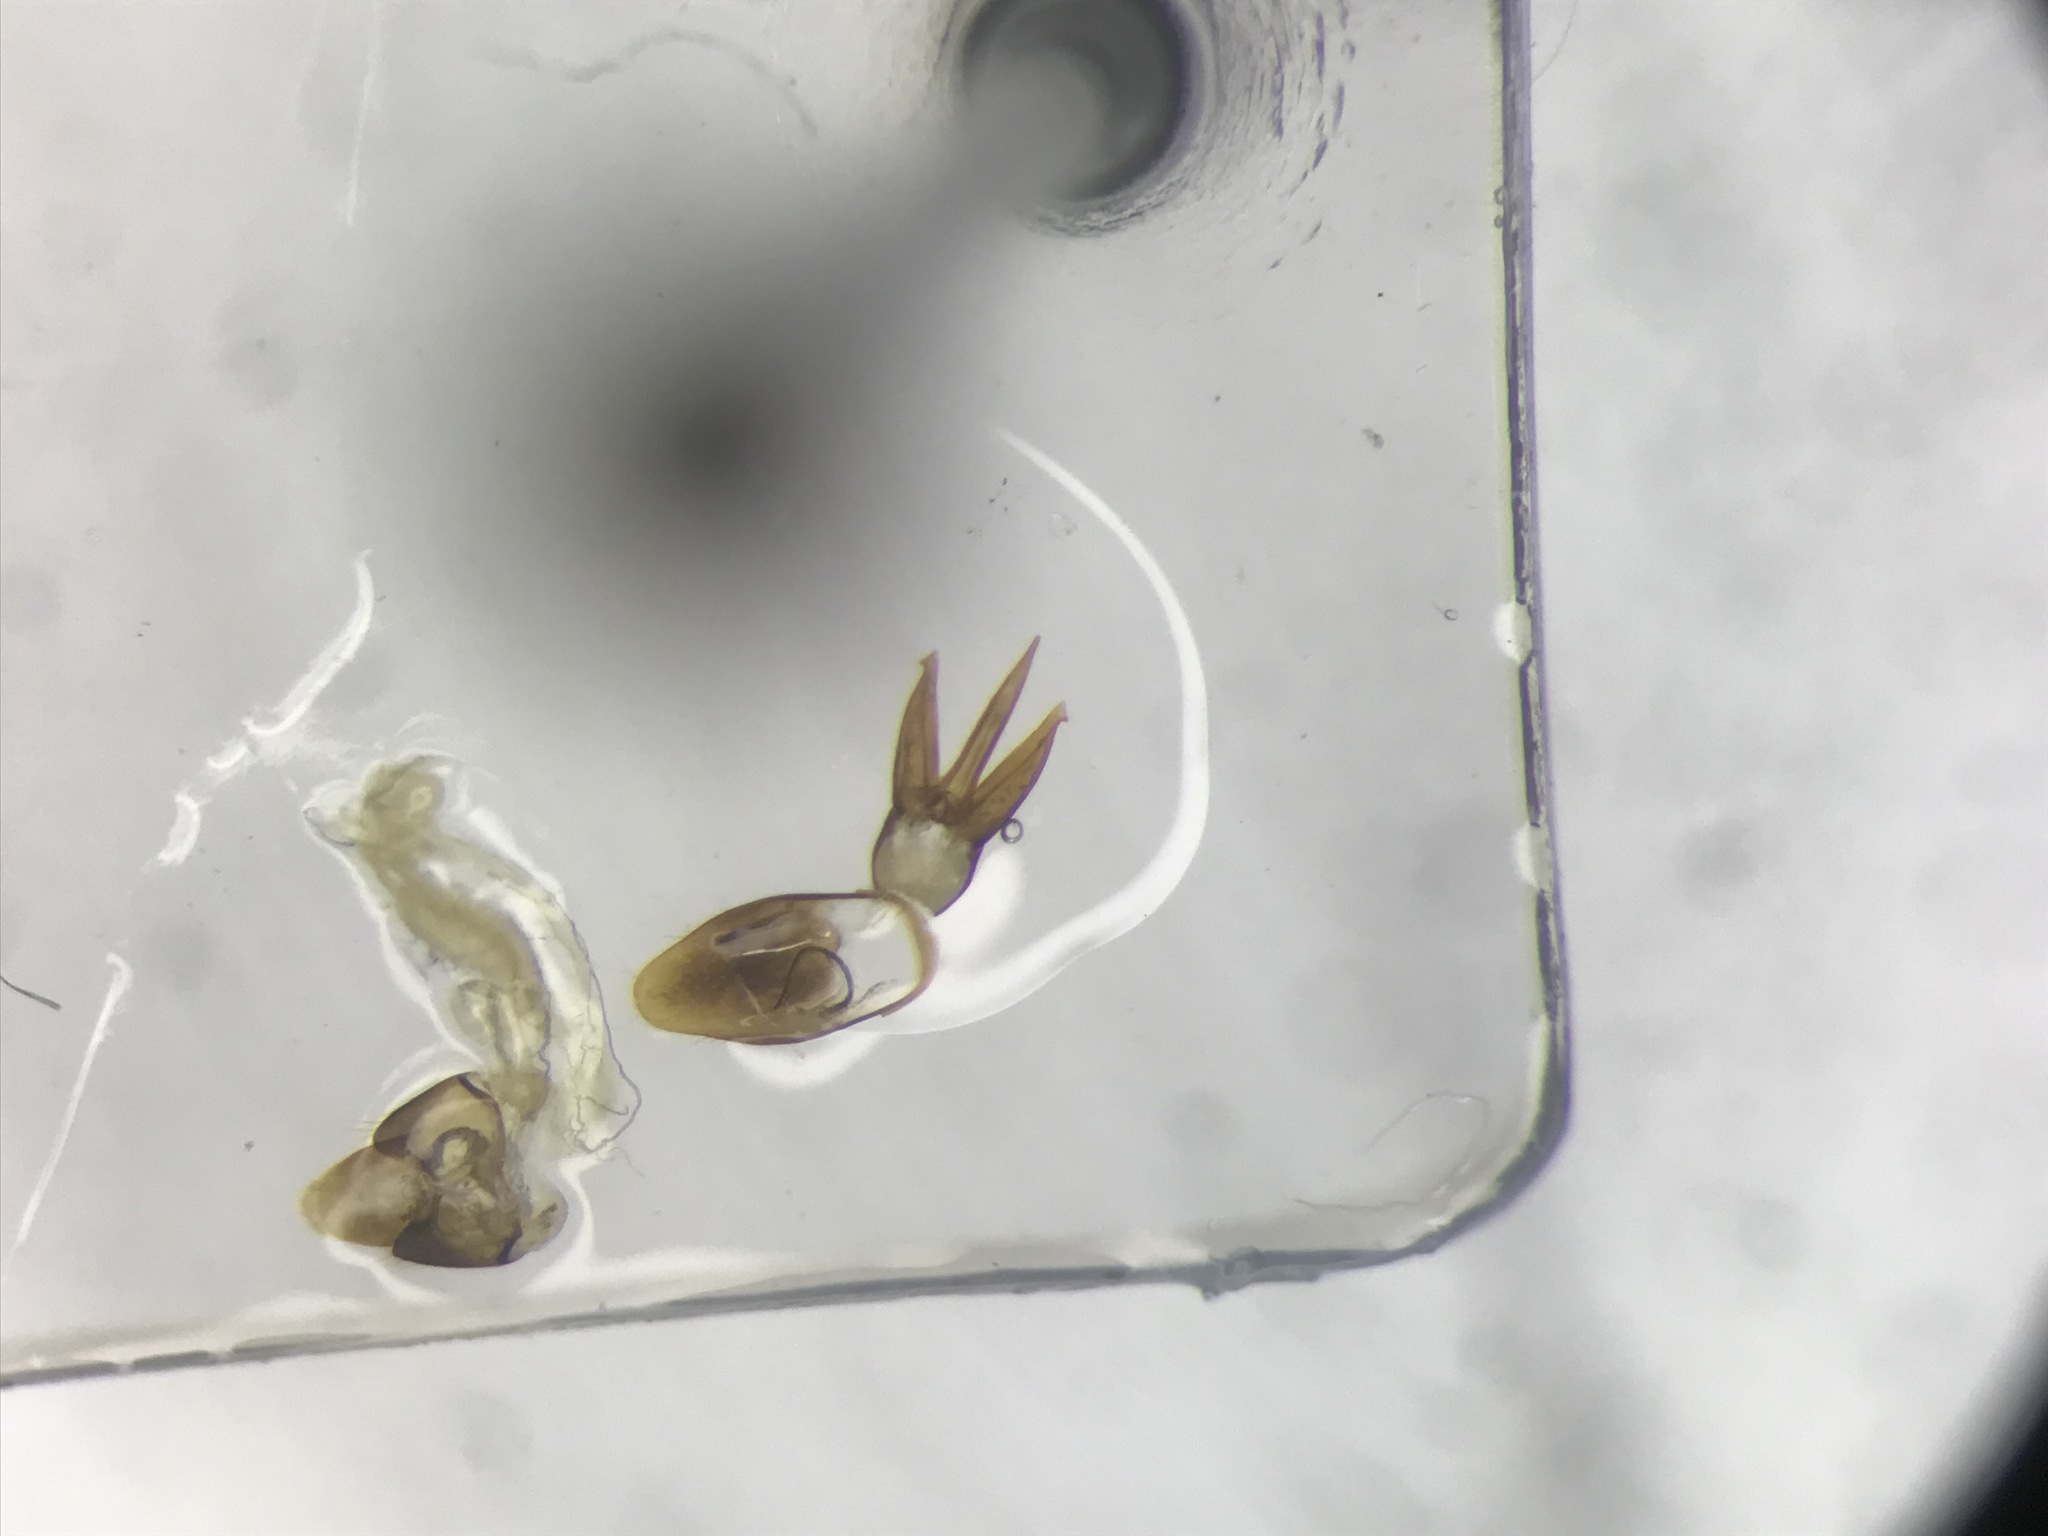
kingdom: Animalia
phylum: Arthropoda
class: Insecta
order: Coleoptera
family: Elateridae
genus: Ampedus
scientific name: Ampedus mixtus
